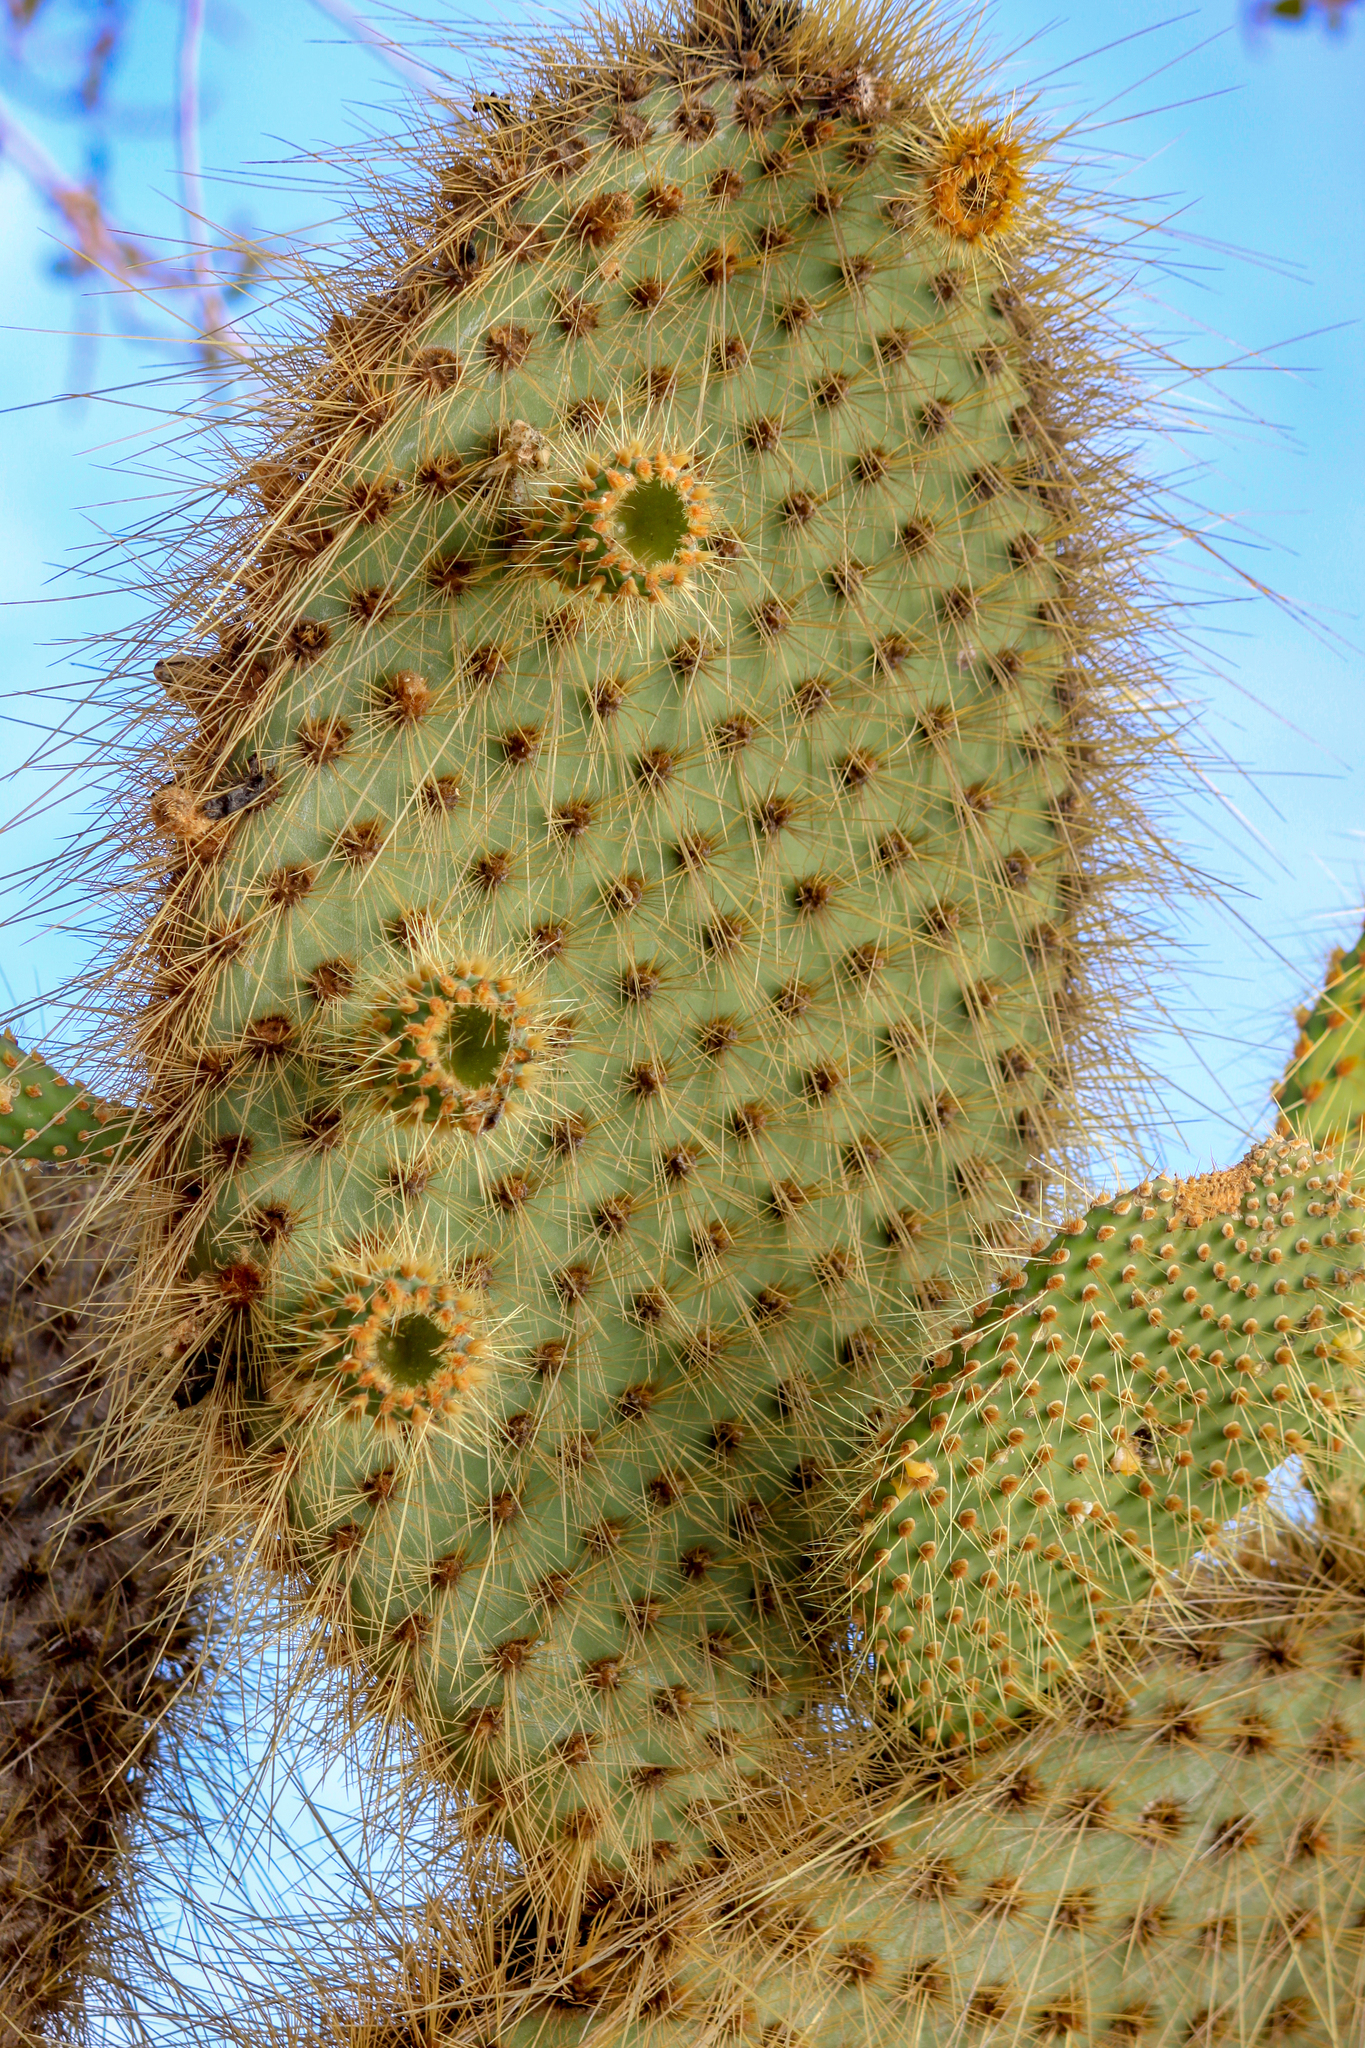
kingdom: Plantae
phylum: Tracheophyta
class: Magnoliopsida
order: Caryophyllales
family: Cactaceae
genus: Opuntia
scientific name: Opuntia galapageia
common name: Galápagos prickly pear
